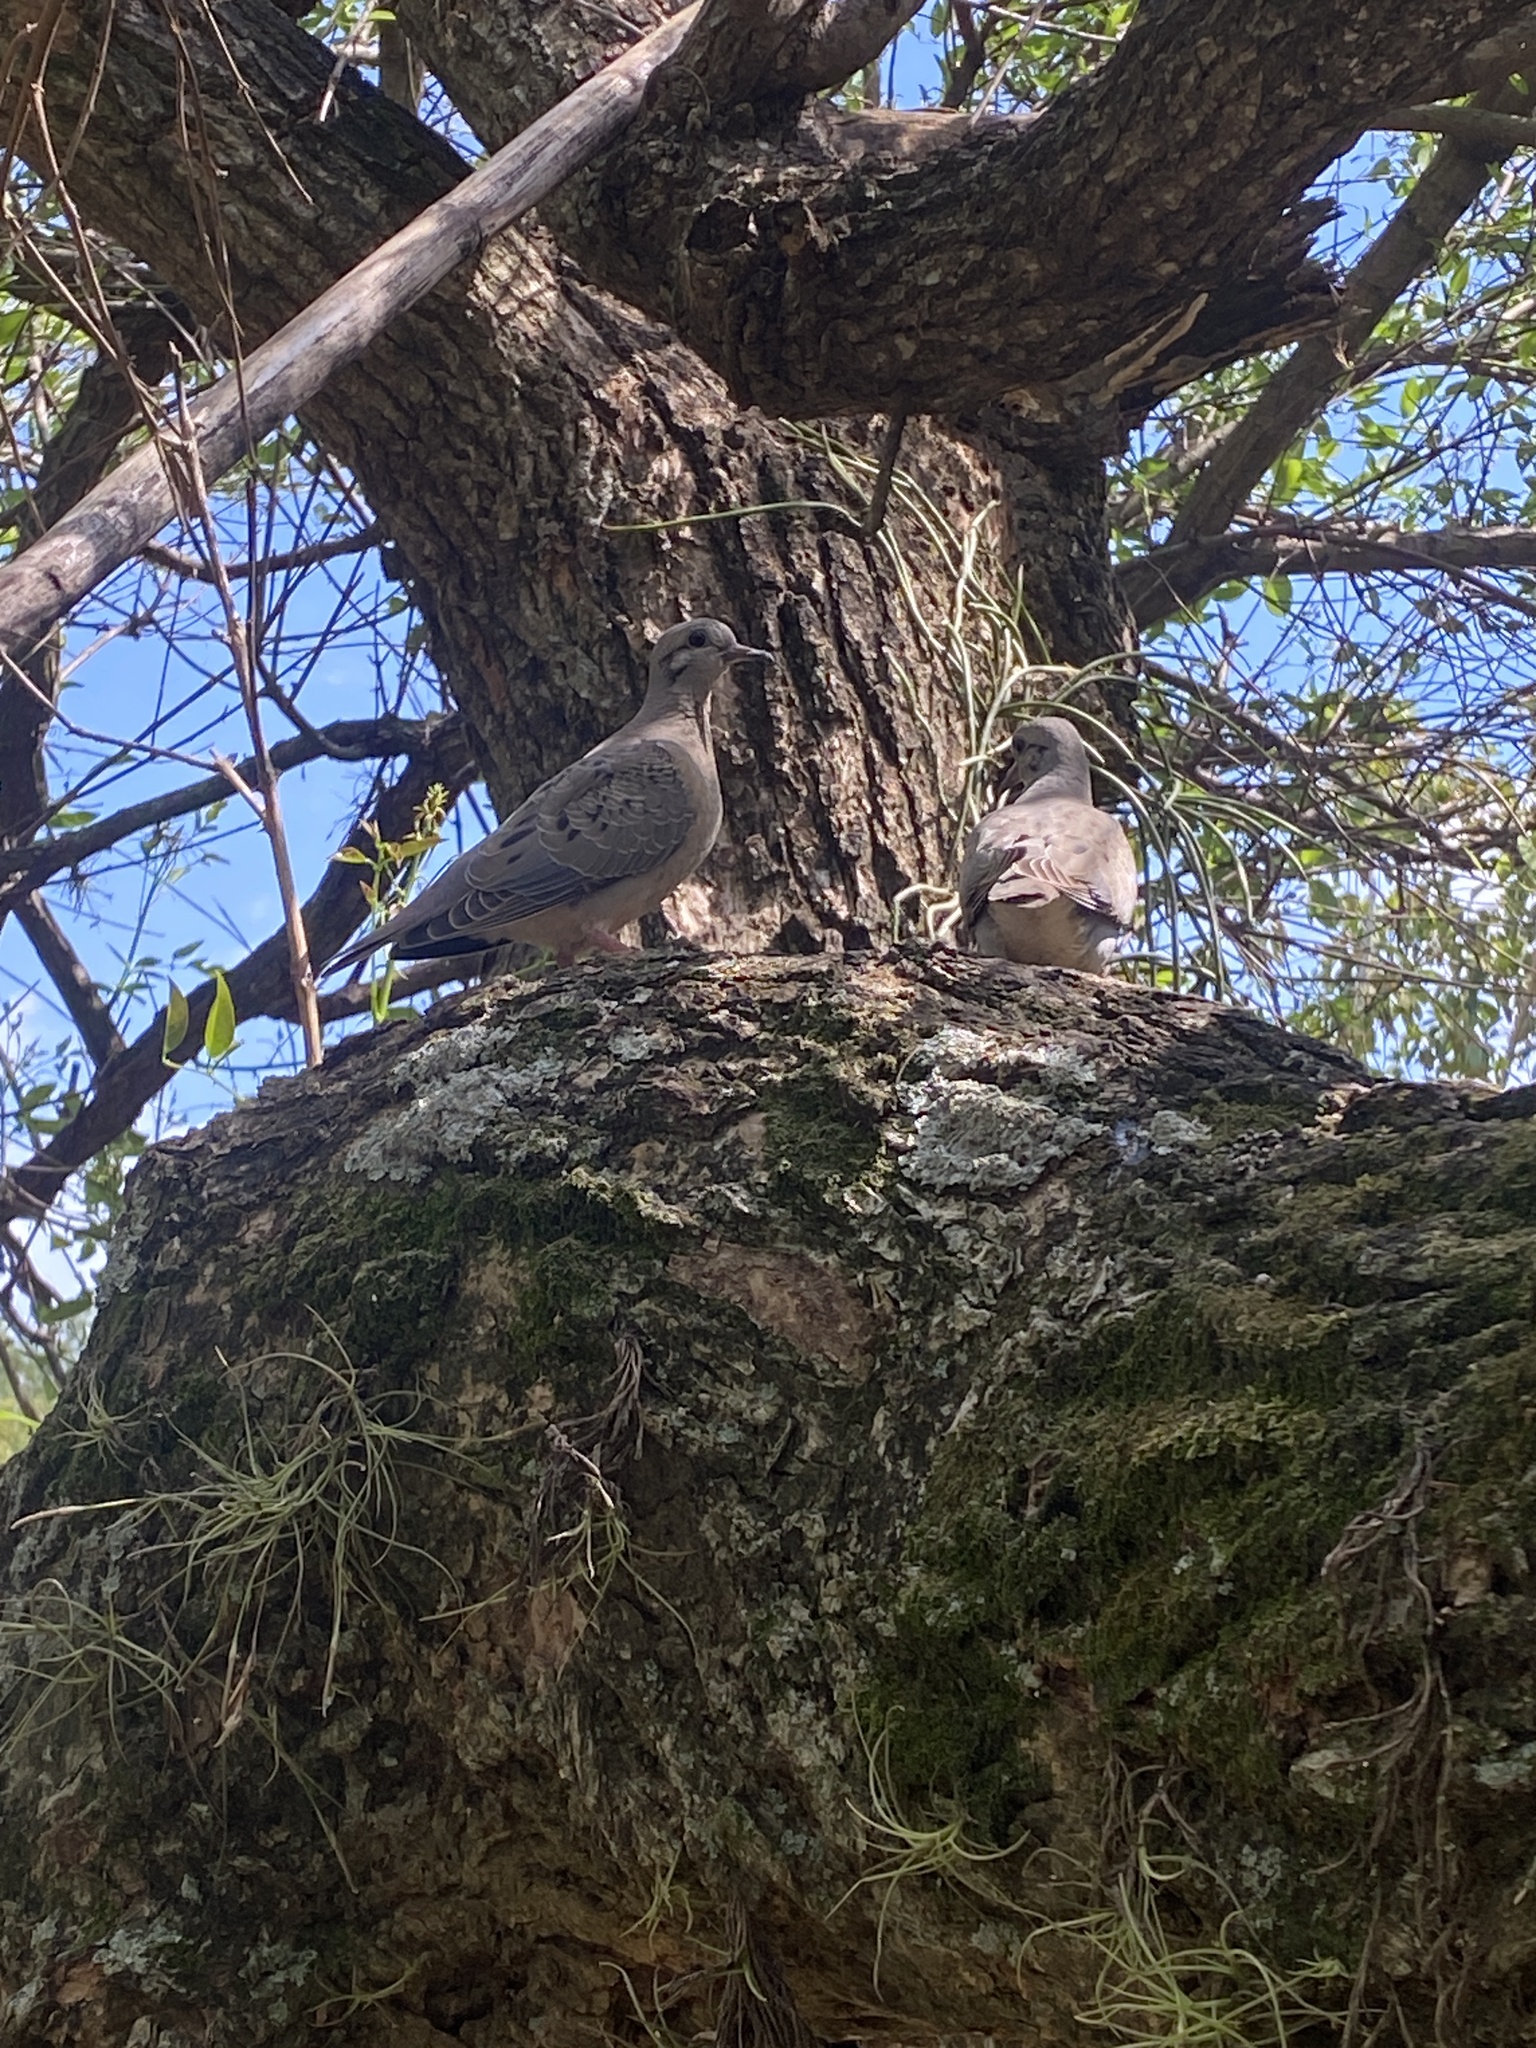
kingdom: Animalia
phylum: Chordata
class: Aves
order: Columbiformes
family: Columbidae
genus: Zenaida
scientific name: Zenaida auriculata
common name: Eared dove
